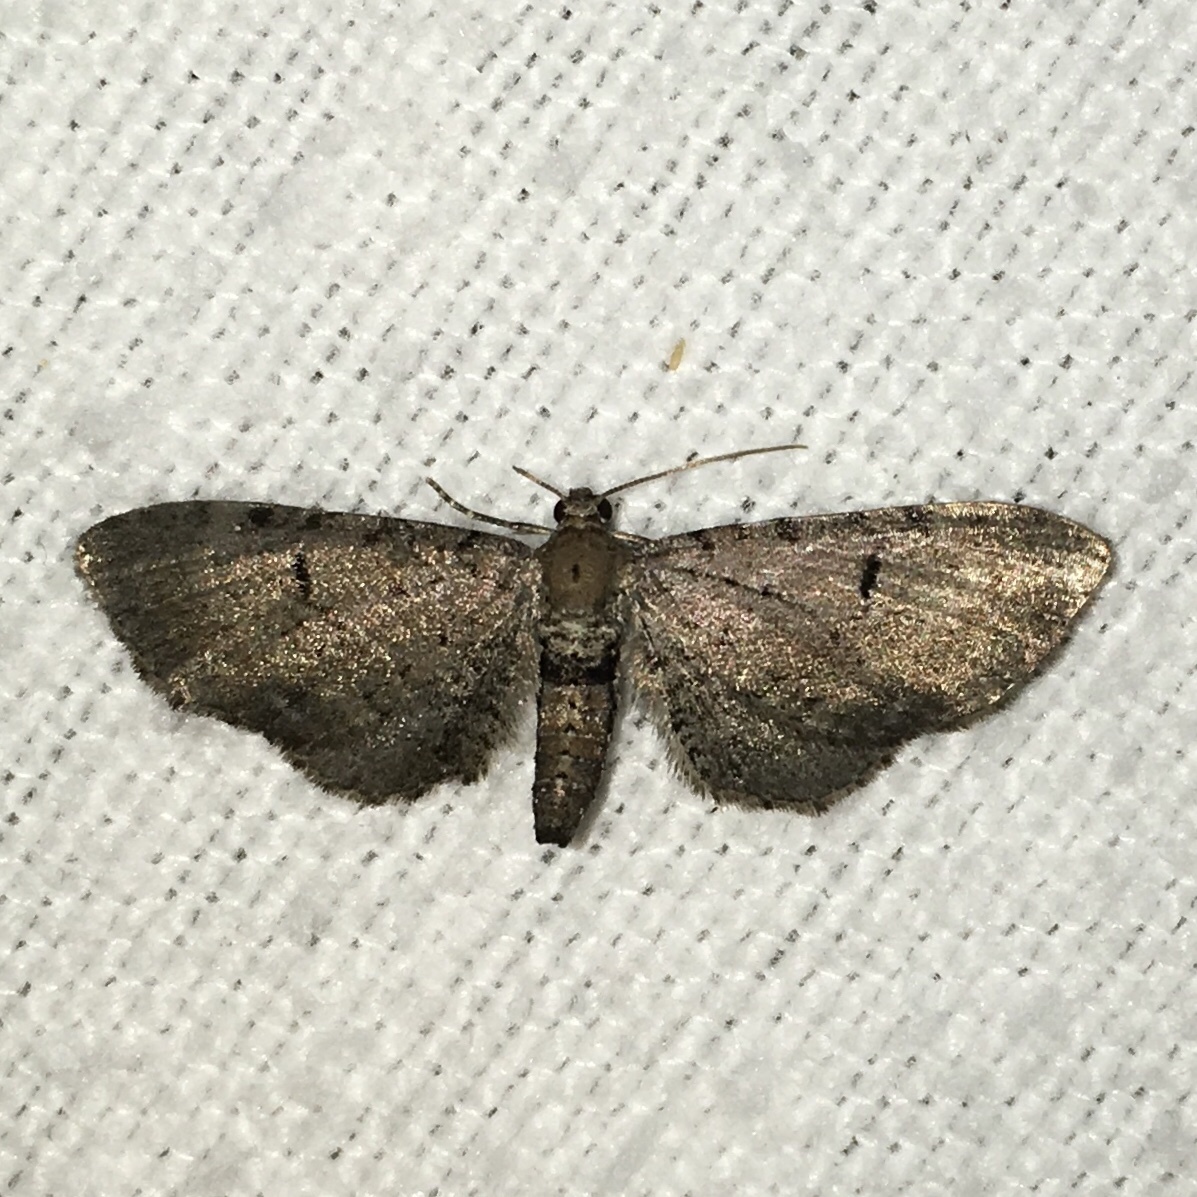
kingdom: Animalia
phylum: Arthropoda
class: Insecta
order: Lepidoptera
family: Geometridae
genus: Eupithecia
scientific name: Eupithecia miserulata
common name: Common eupithecia
